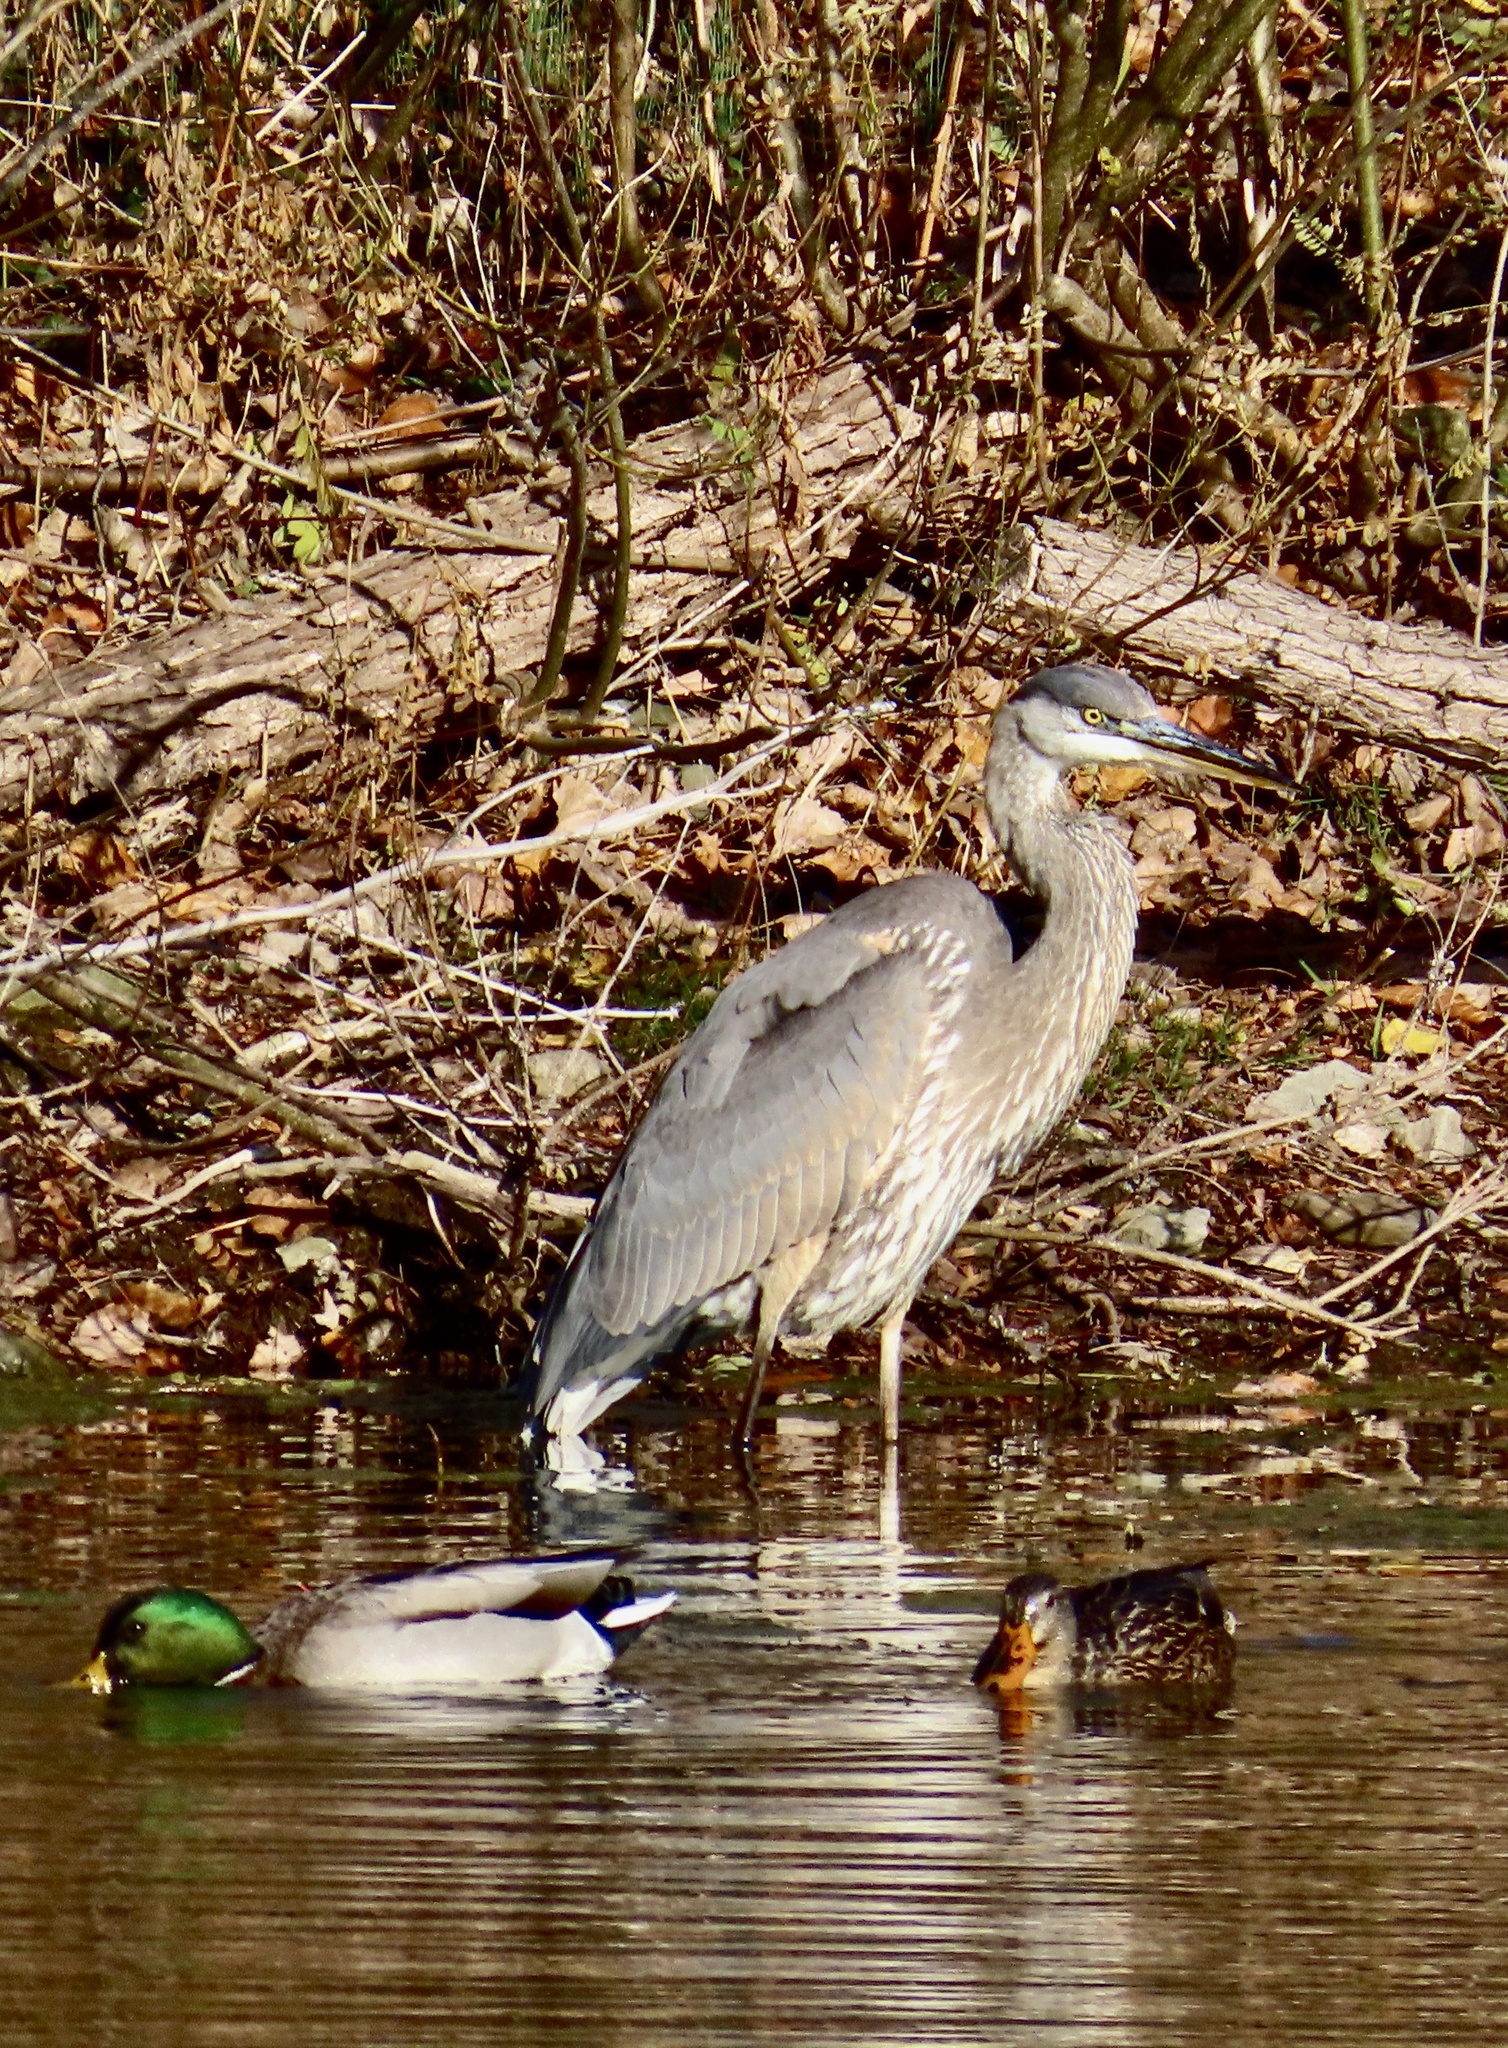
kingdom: Animalia
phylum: Chordata
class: Aves
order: Pelecaniformes
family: Ardeidae
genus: Ardea
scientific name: Ardea herodias
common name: Great blue heron
